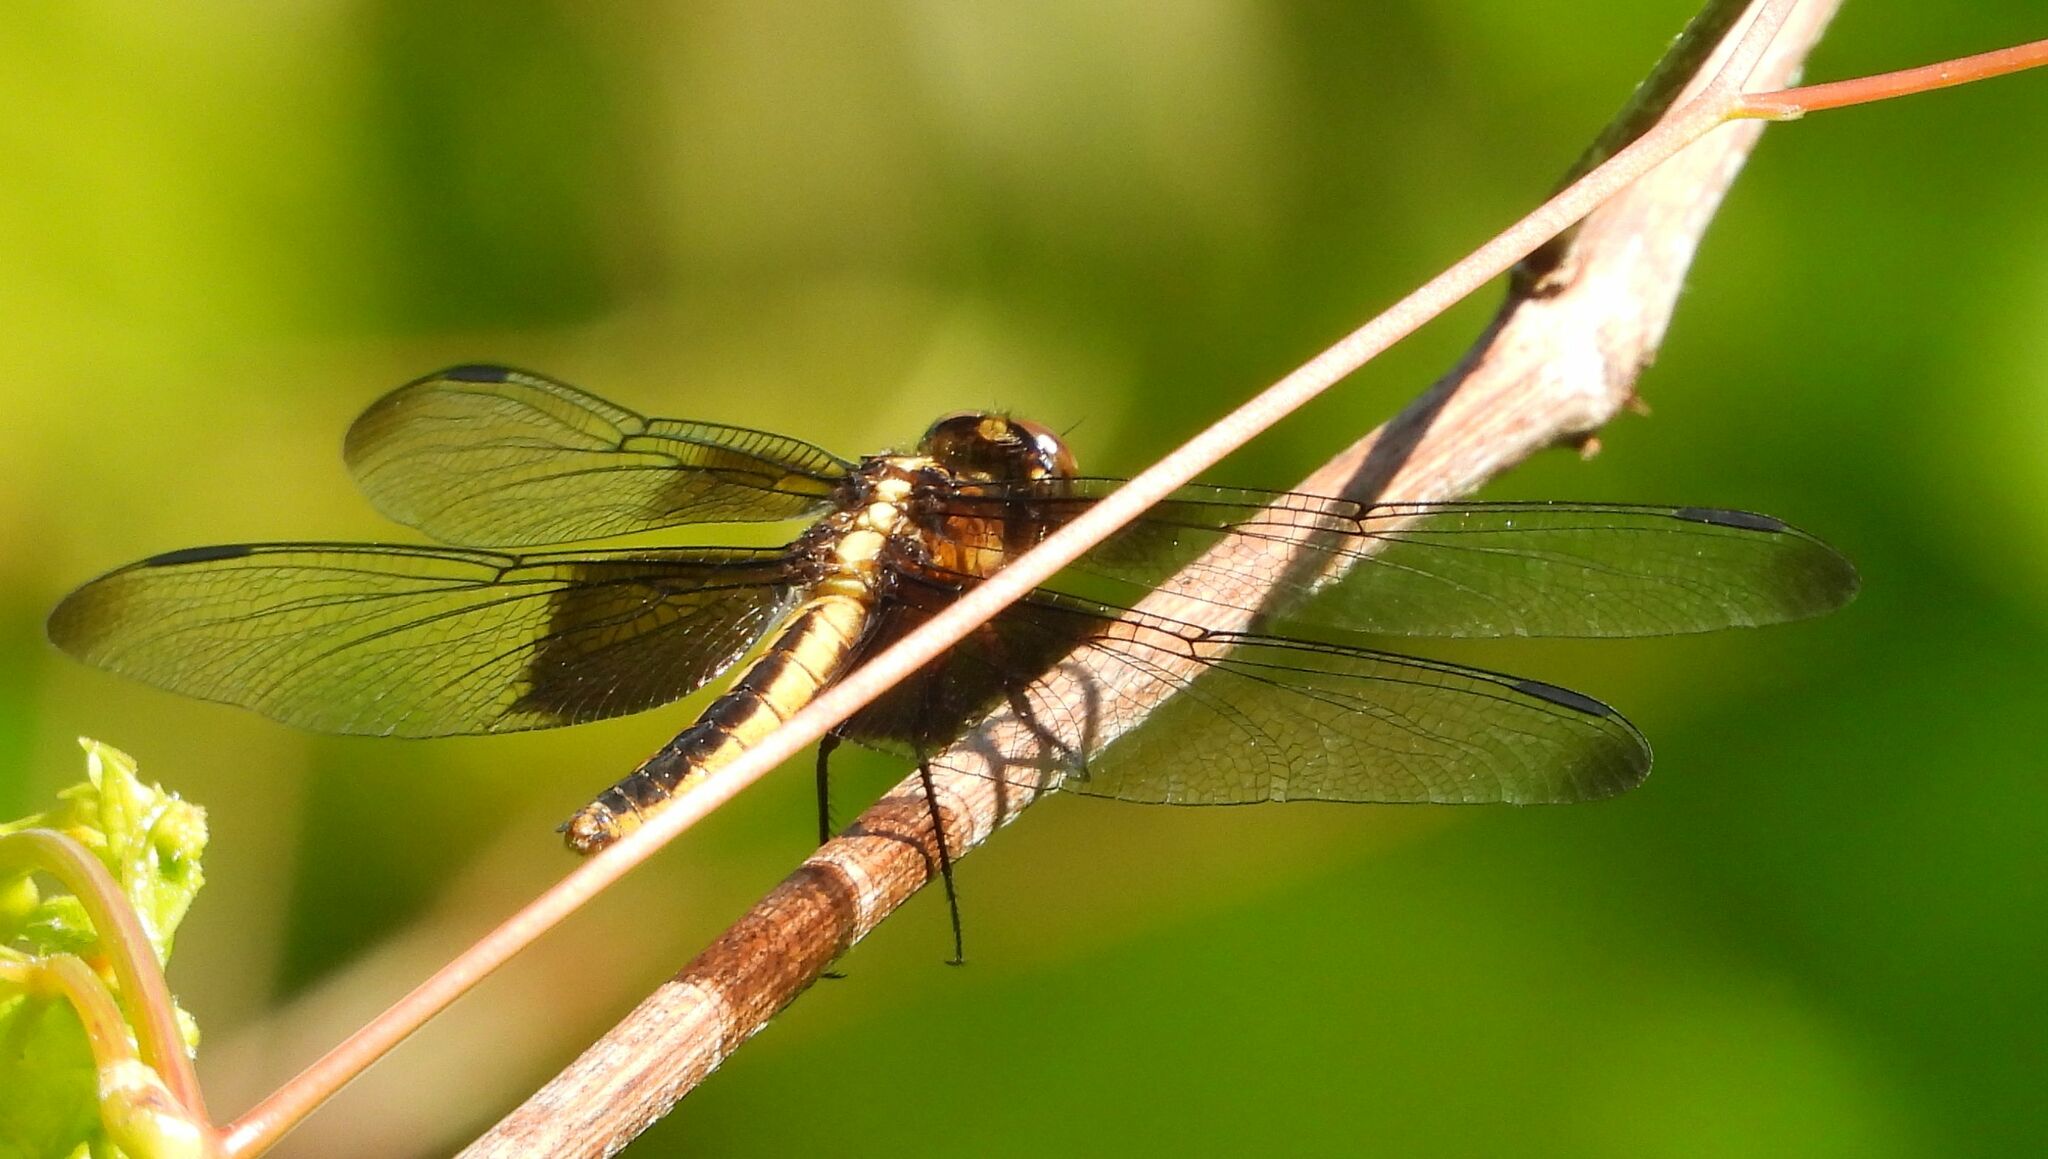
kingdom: Animalia
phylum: Arthropoda
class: Insecta
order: Odonata
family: Libellulidae
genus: Libellula
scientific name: Libellula luctuosa
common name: Widow skimmer
